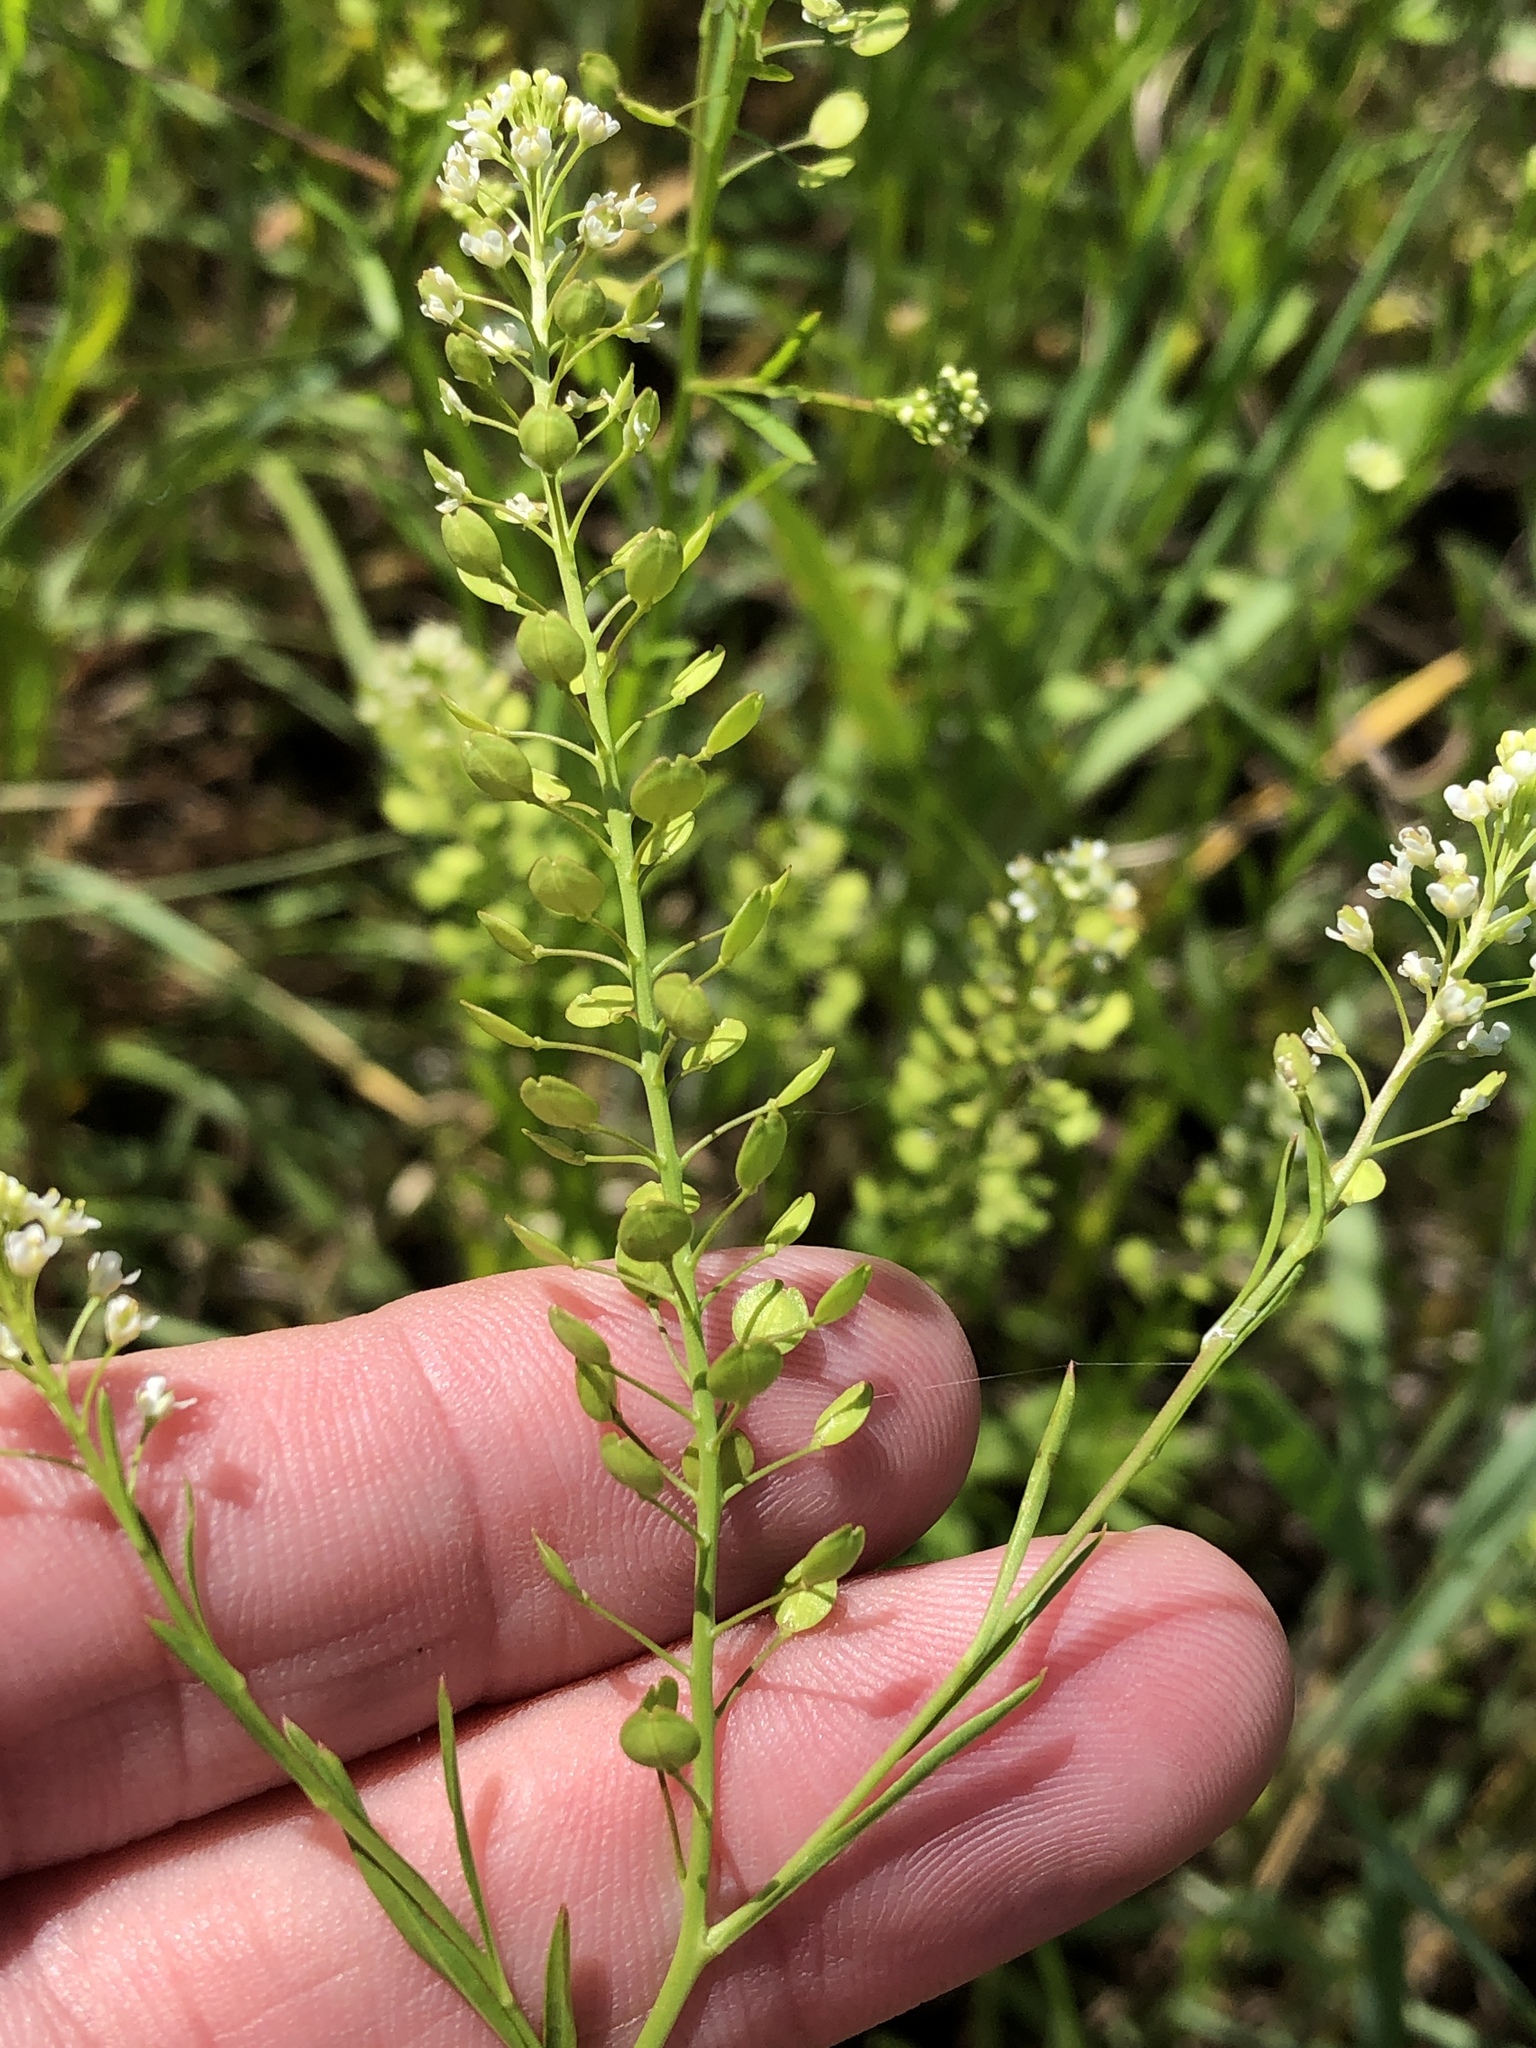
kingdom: Plantae
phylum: Tracheophyta
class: Magnoliopsida
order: Brassicales
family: Brassicaceae
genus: Lepidium
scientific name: Lepidium virginicum
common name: Least pepperwort
